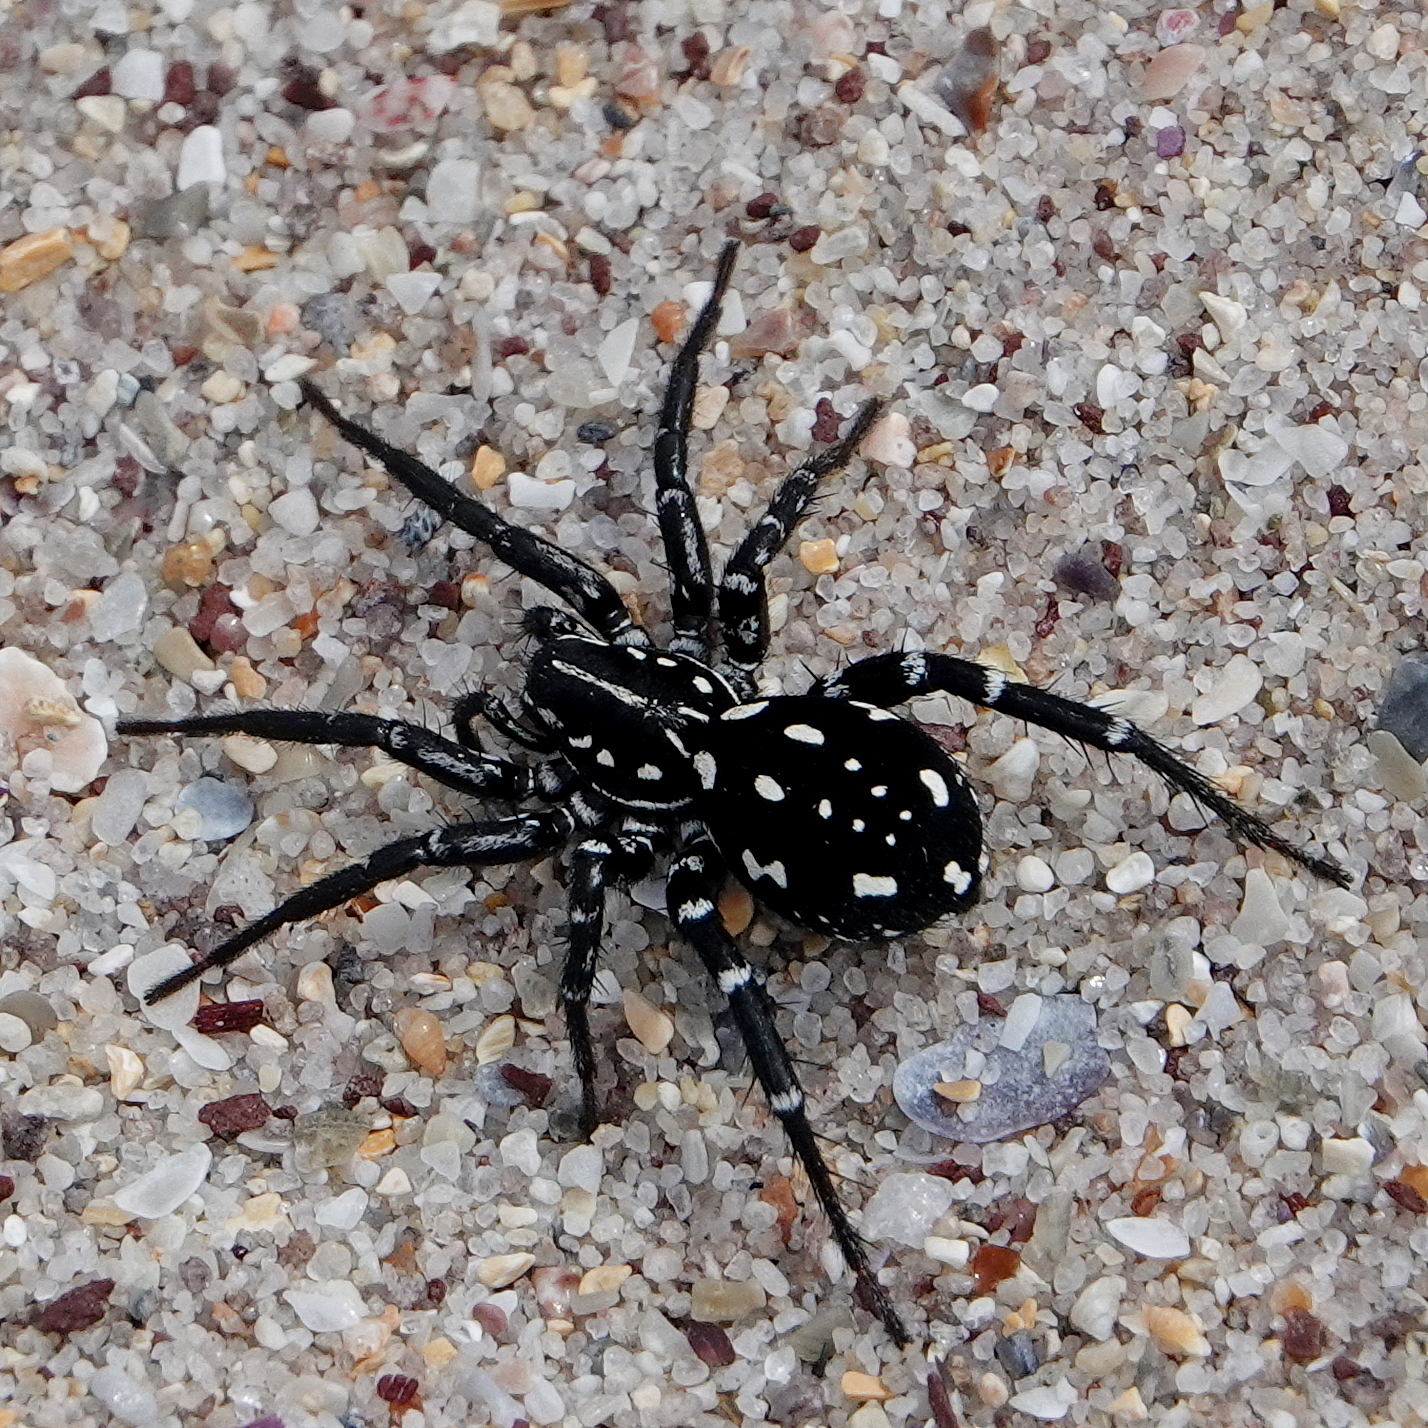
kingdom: Animalia
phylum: Arthropoda
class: Arachnida
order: Araneae
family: Corinnidae
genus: Nyssus
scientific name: Nyssus albopunctatus
